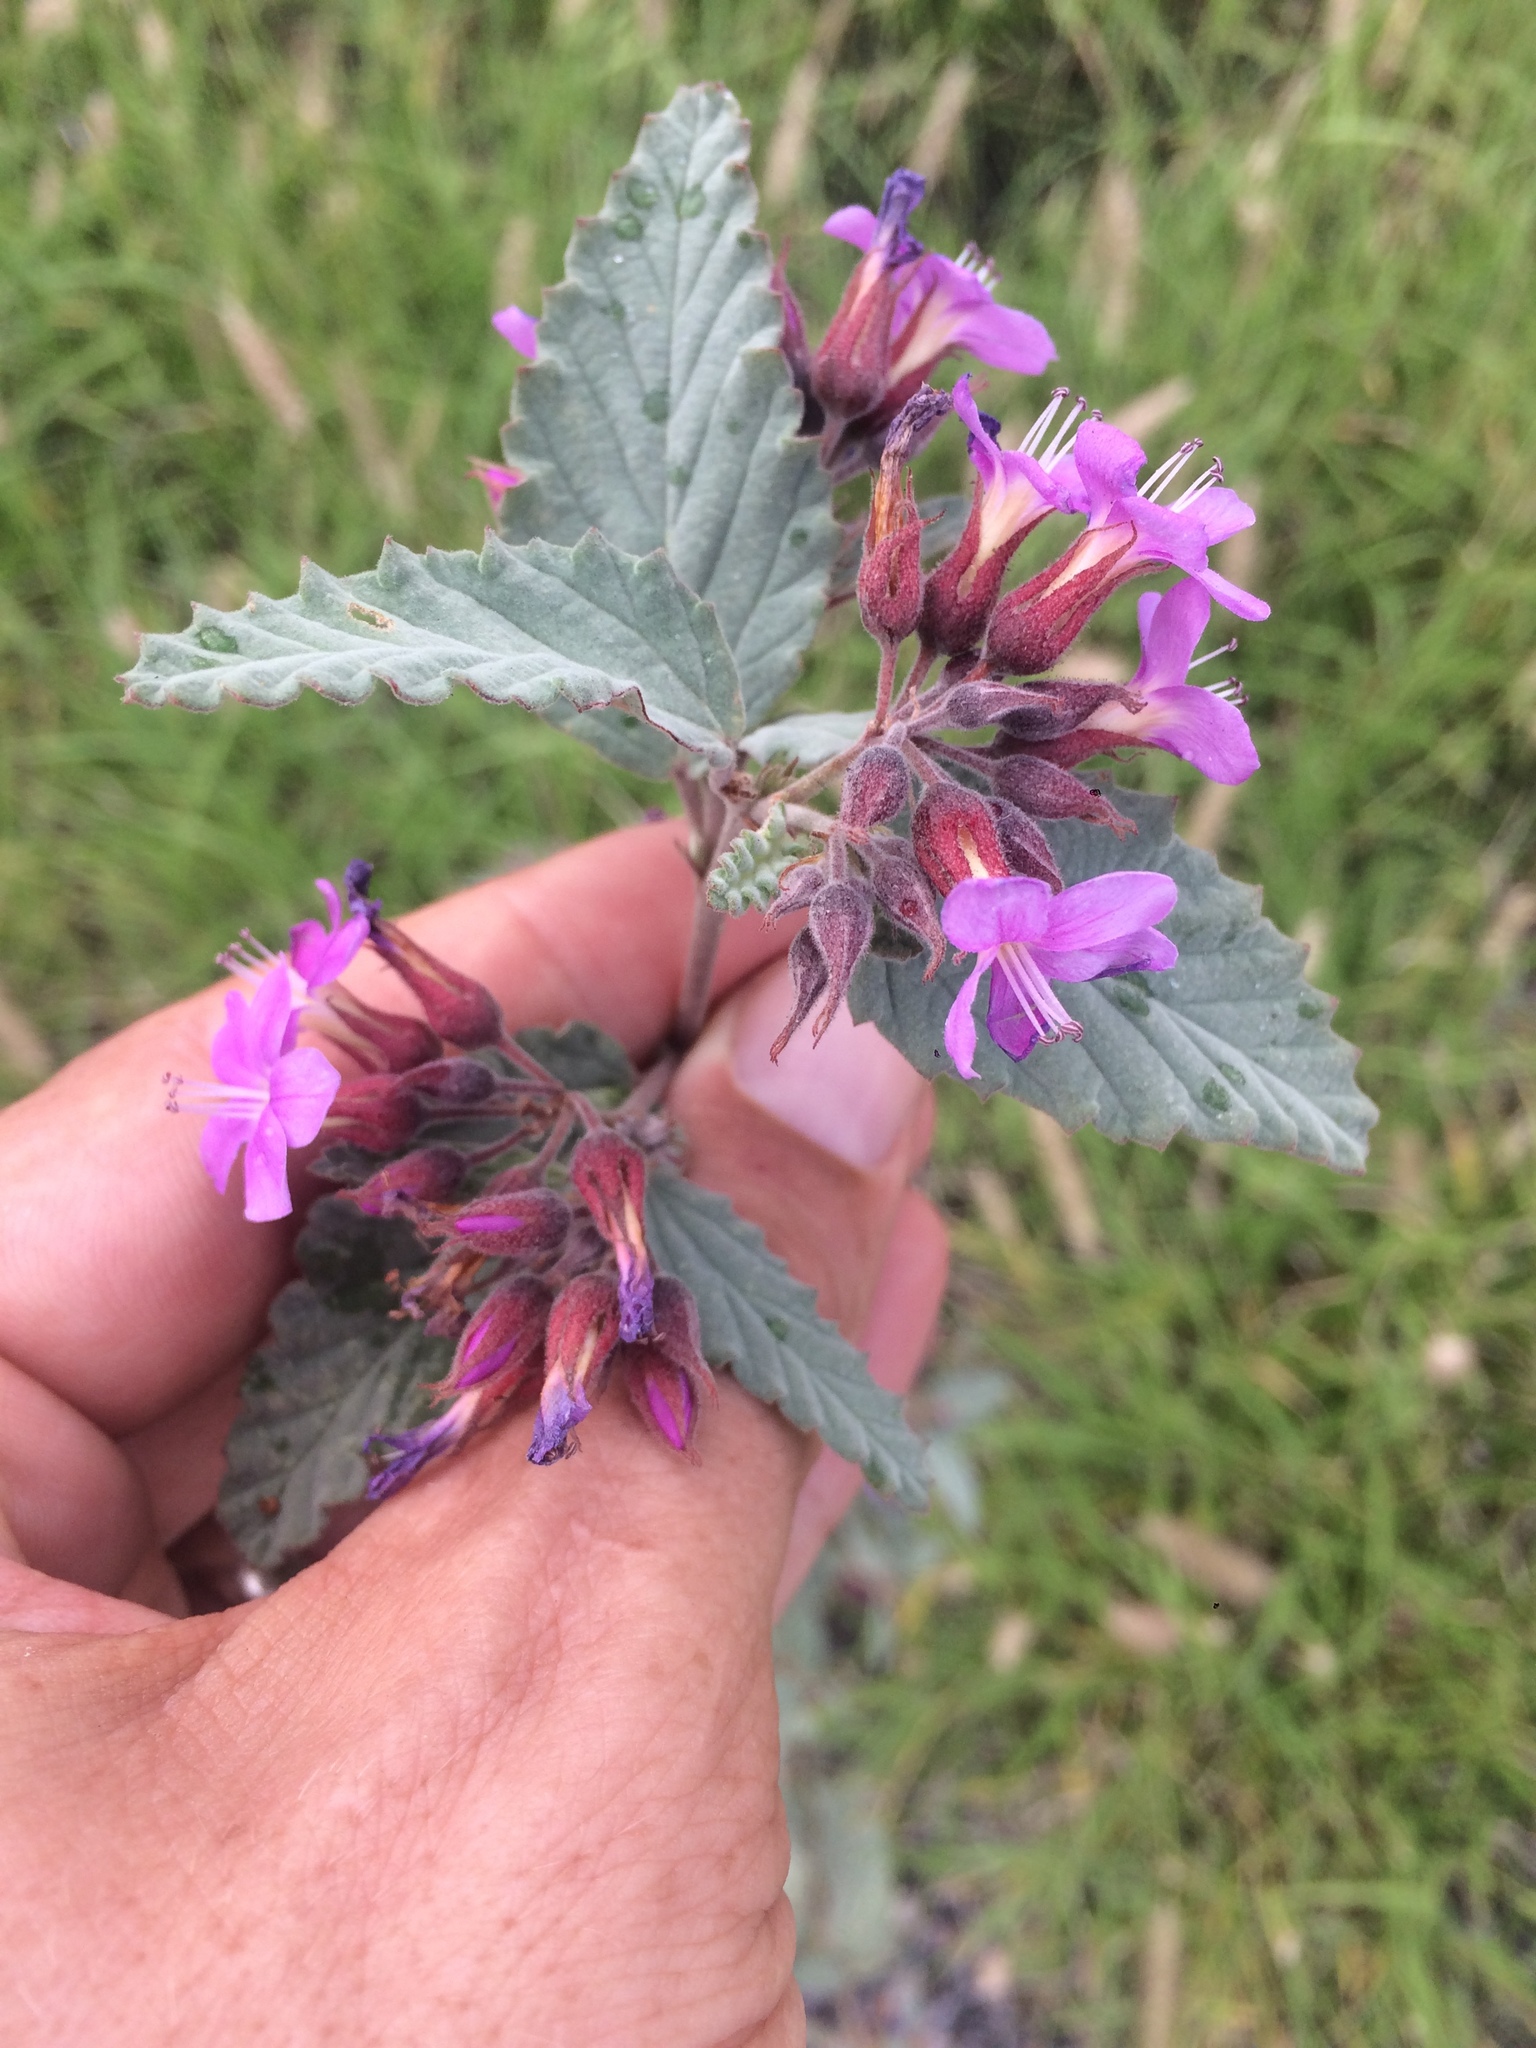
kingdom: Plantae
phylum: Tracheophyta
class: Magnoliopsida
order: Malvales
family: Malvaceae
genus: Melochia
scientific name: Melochia tomentosa
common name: Black torch
